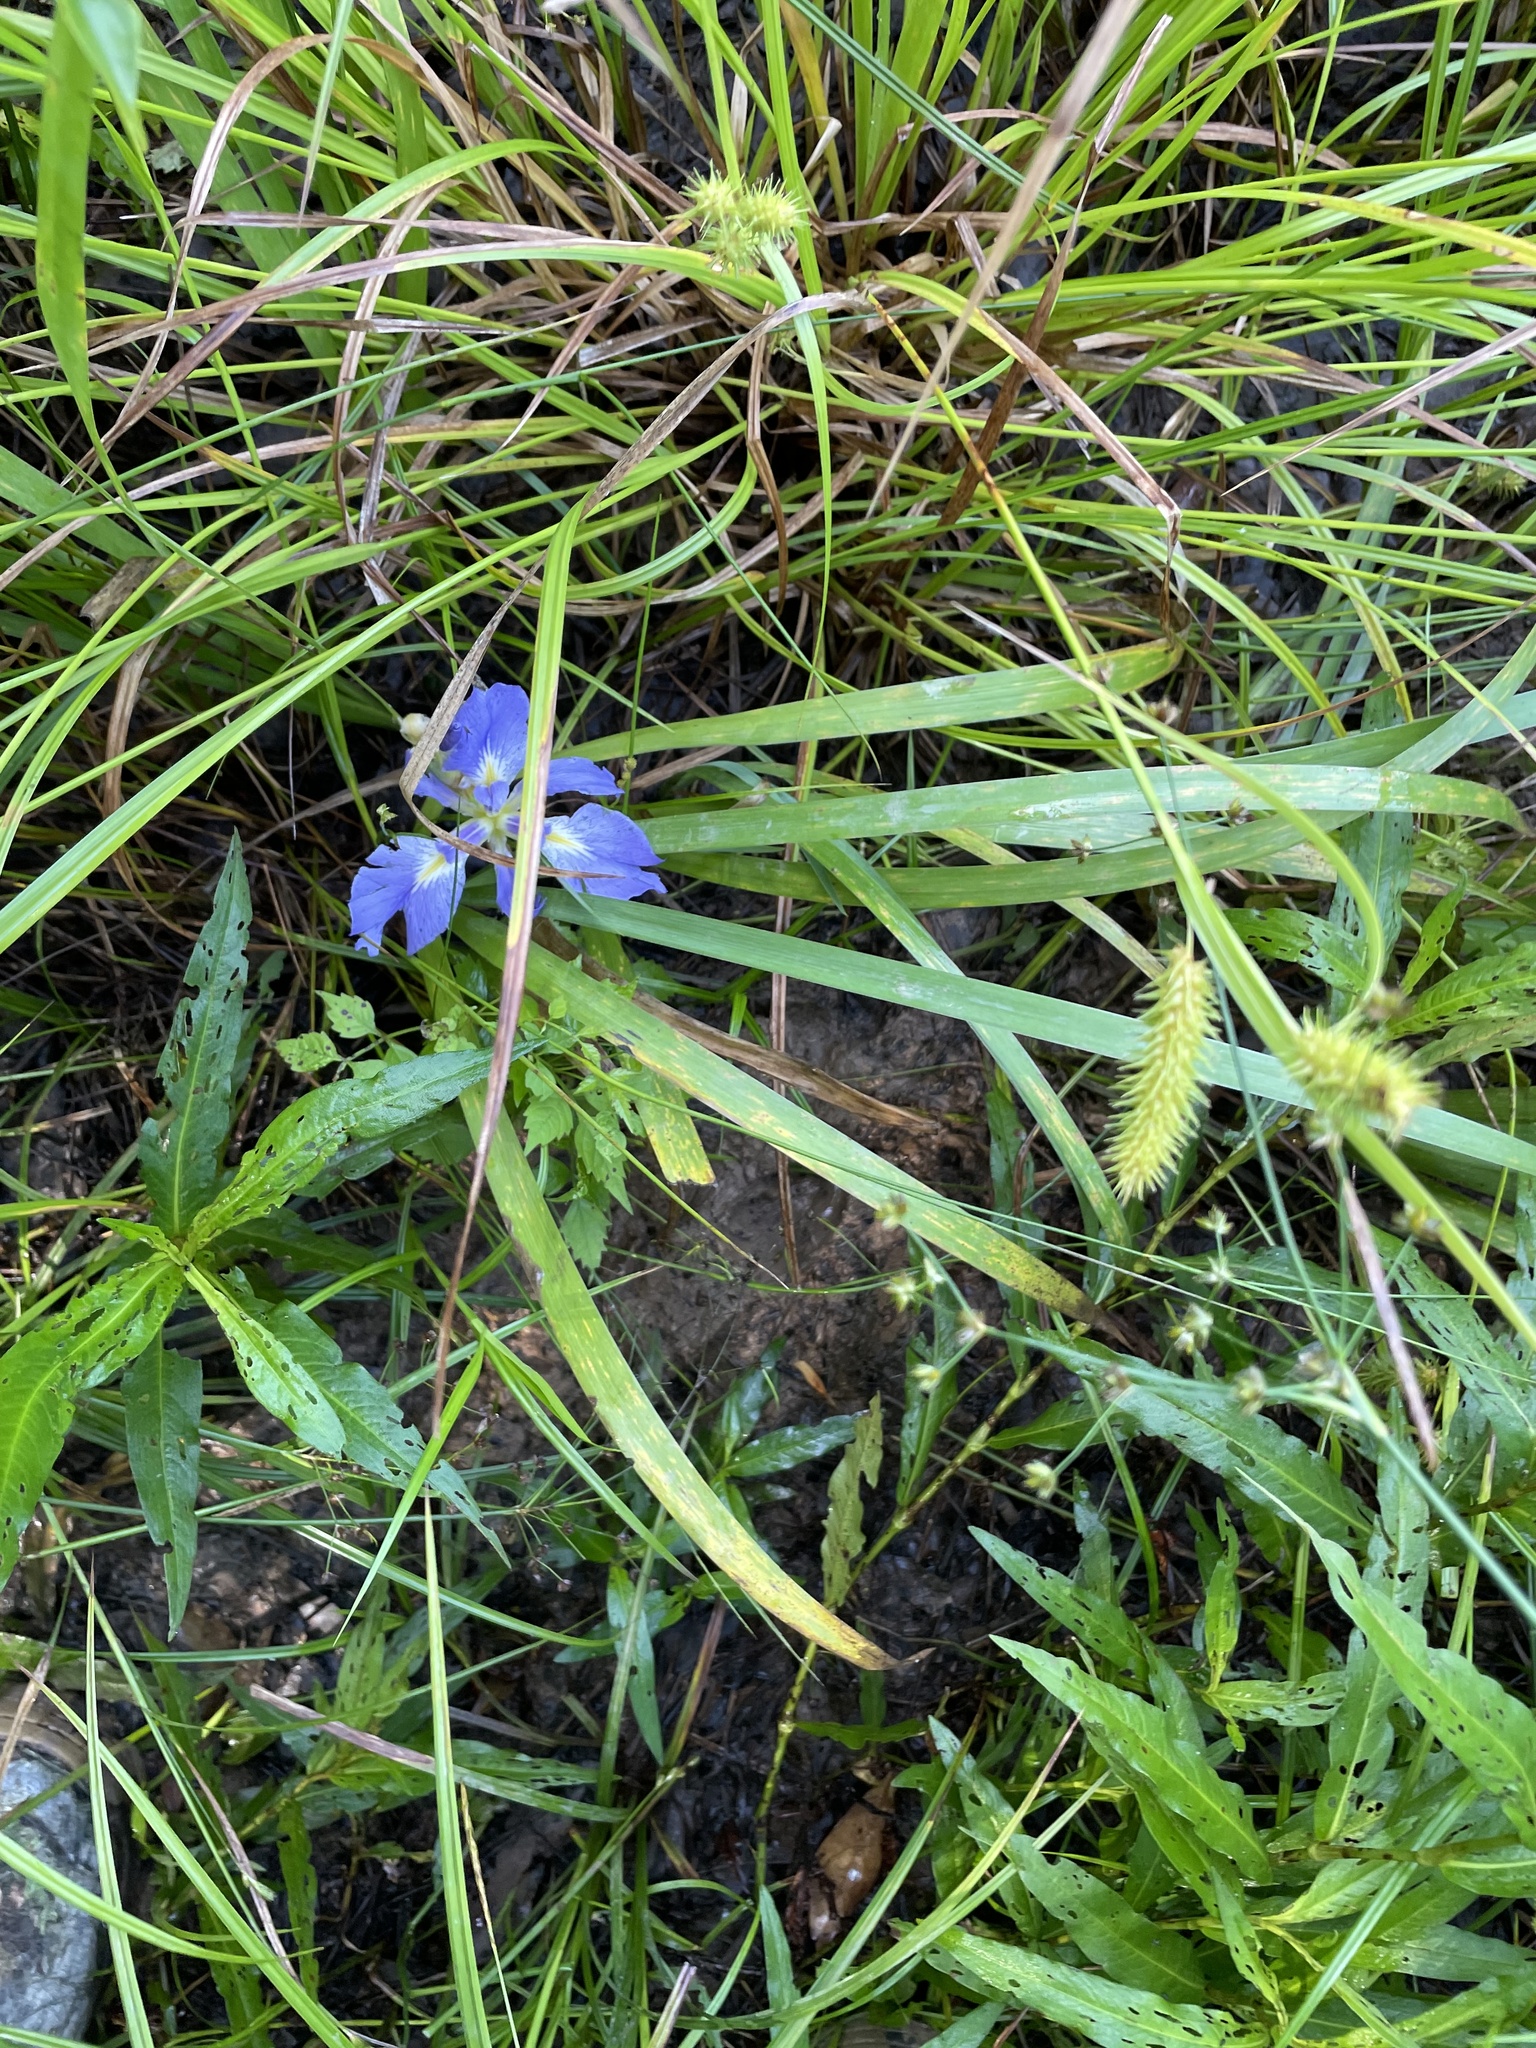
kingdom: Plantae
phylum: Tracheophyta
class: Liliopsida
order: Asparagales
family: Iridaceae
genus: Iris
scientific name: Iris brevicaulis
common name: Zigzag iris
